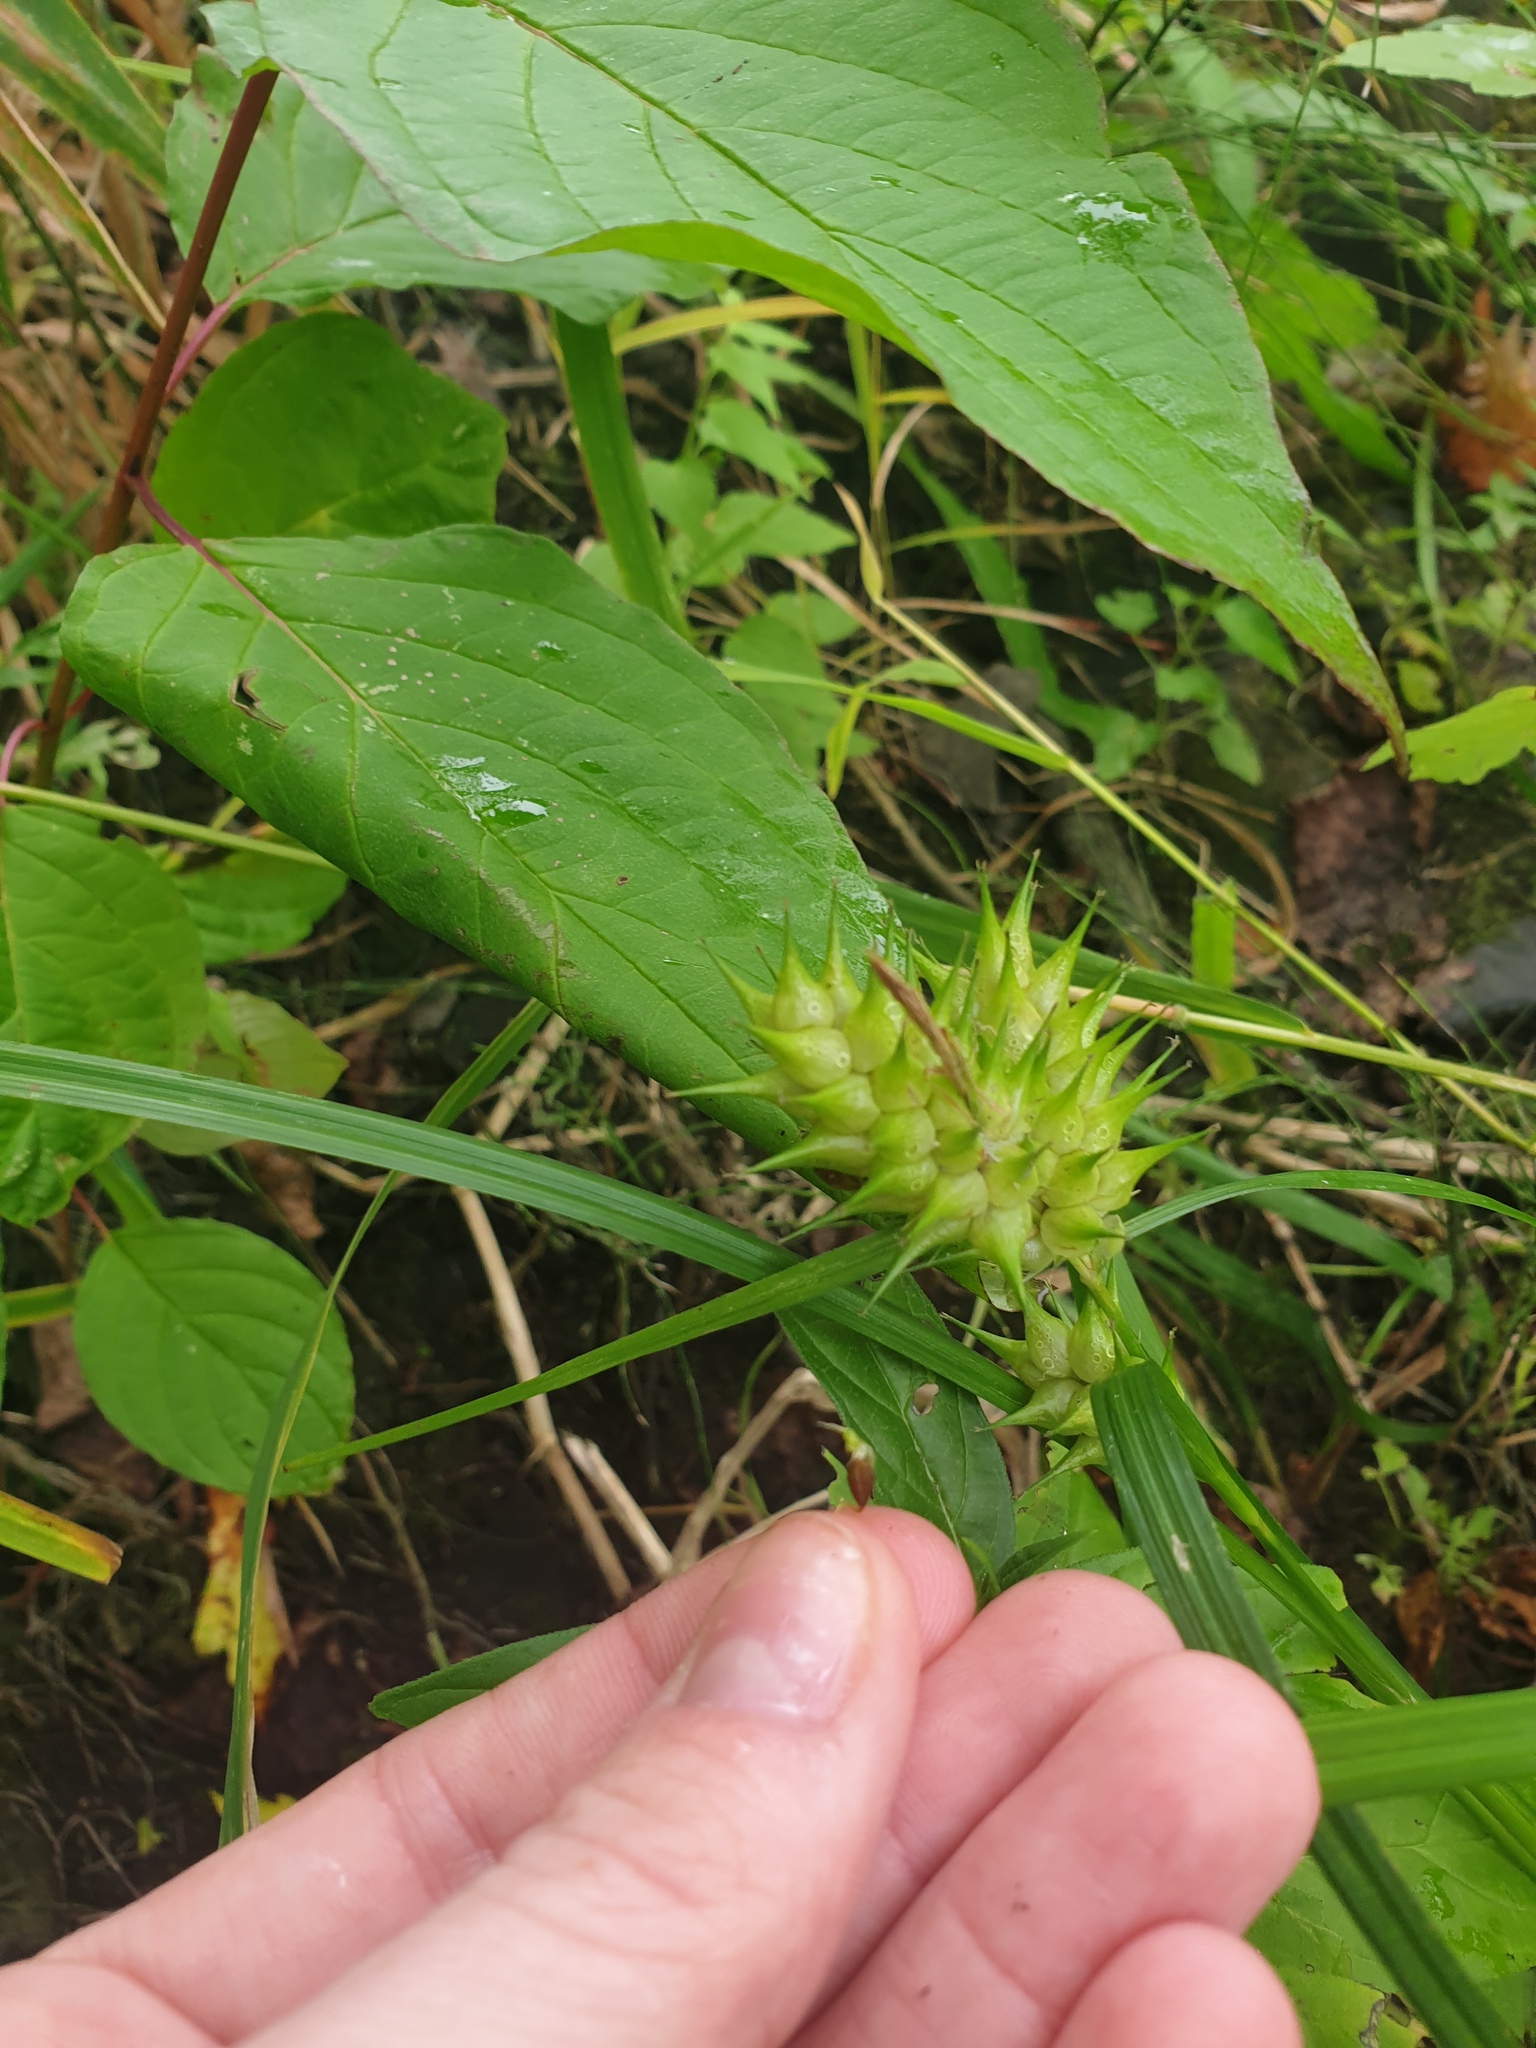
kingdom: Plantae
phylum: Tracheophyta
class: Liliopsida
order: Poales
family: Cyperaceae
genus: Carex
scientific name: Carex lupulina
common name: Hop sedge
